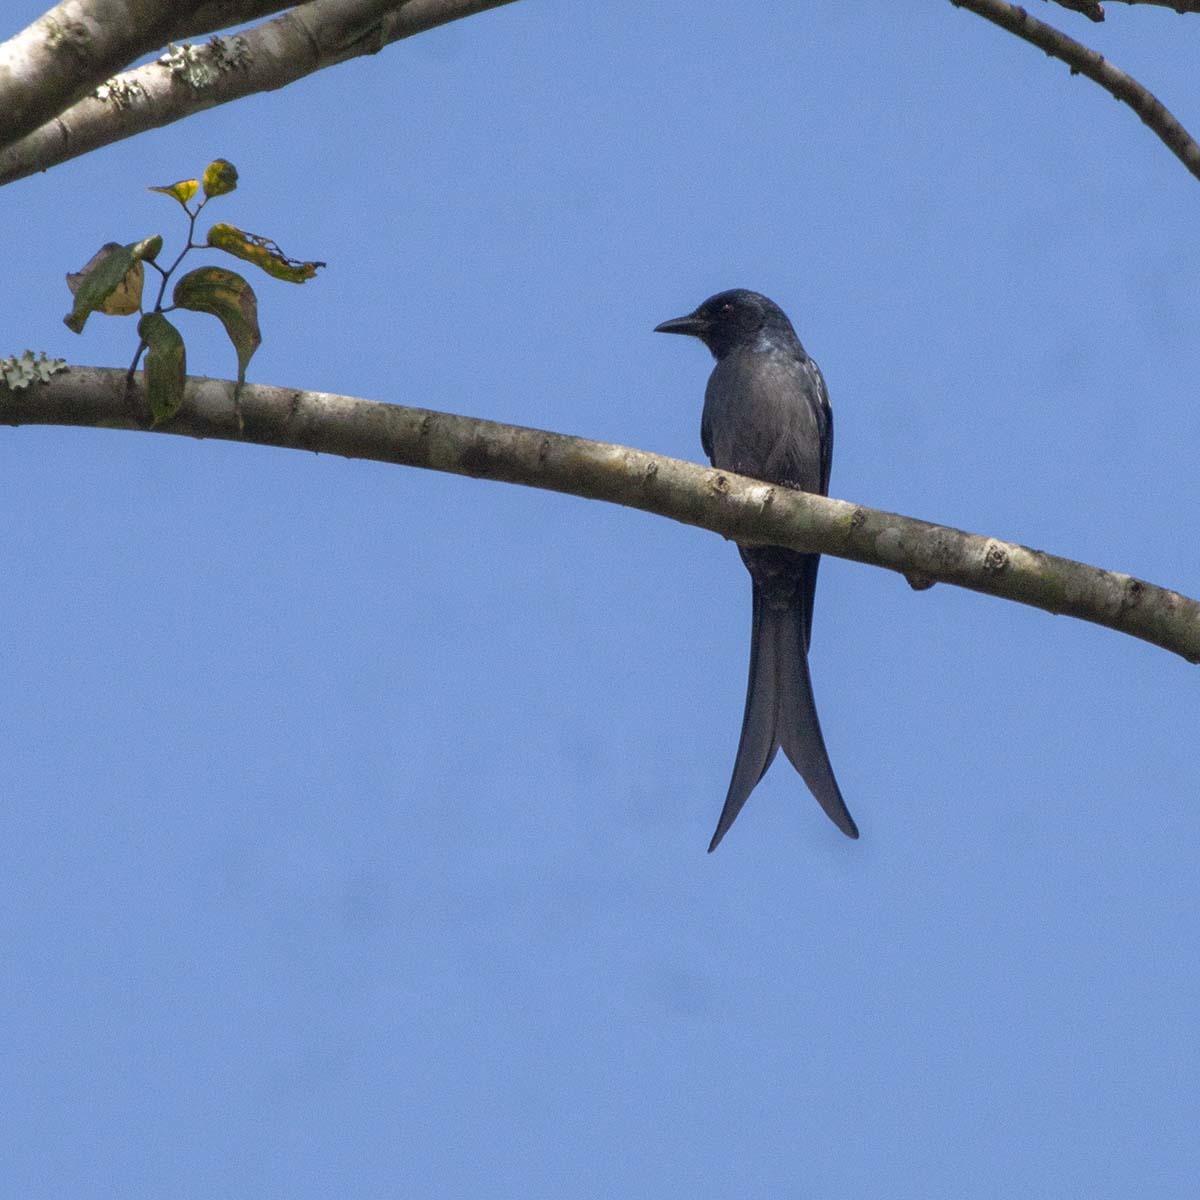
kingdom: Animalia
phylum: Chordata
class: Aves
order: Passeriformes
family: Dicruridae
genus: Dicrurus
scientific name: Dicrurus leucophaeus
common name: Ashy drongo
